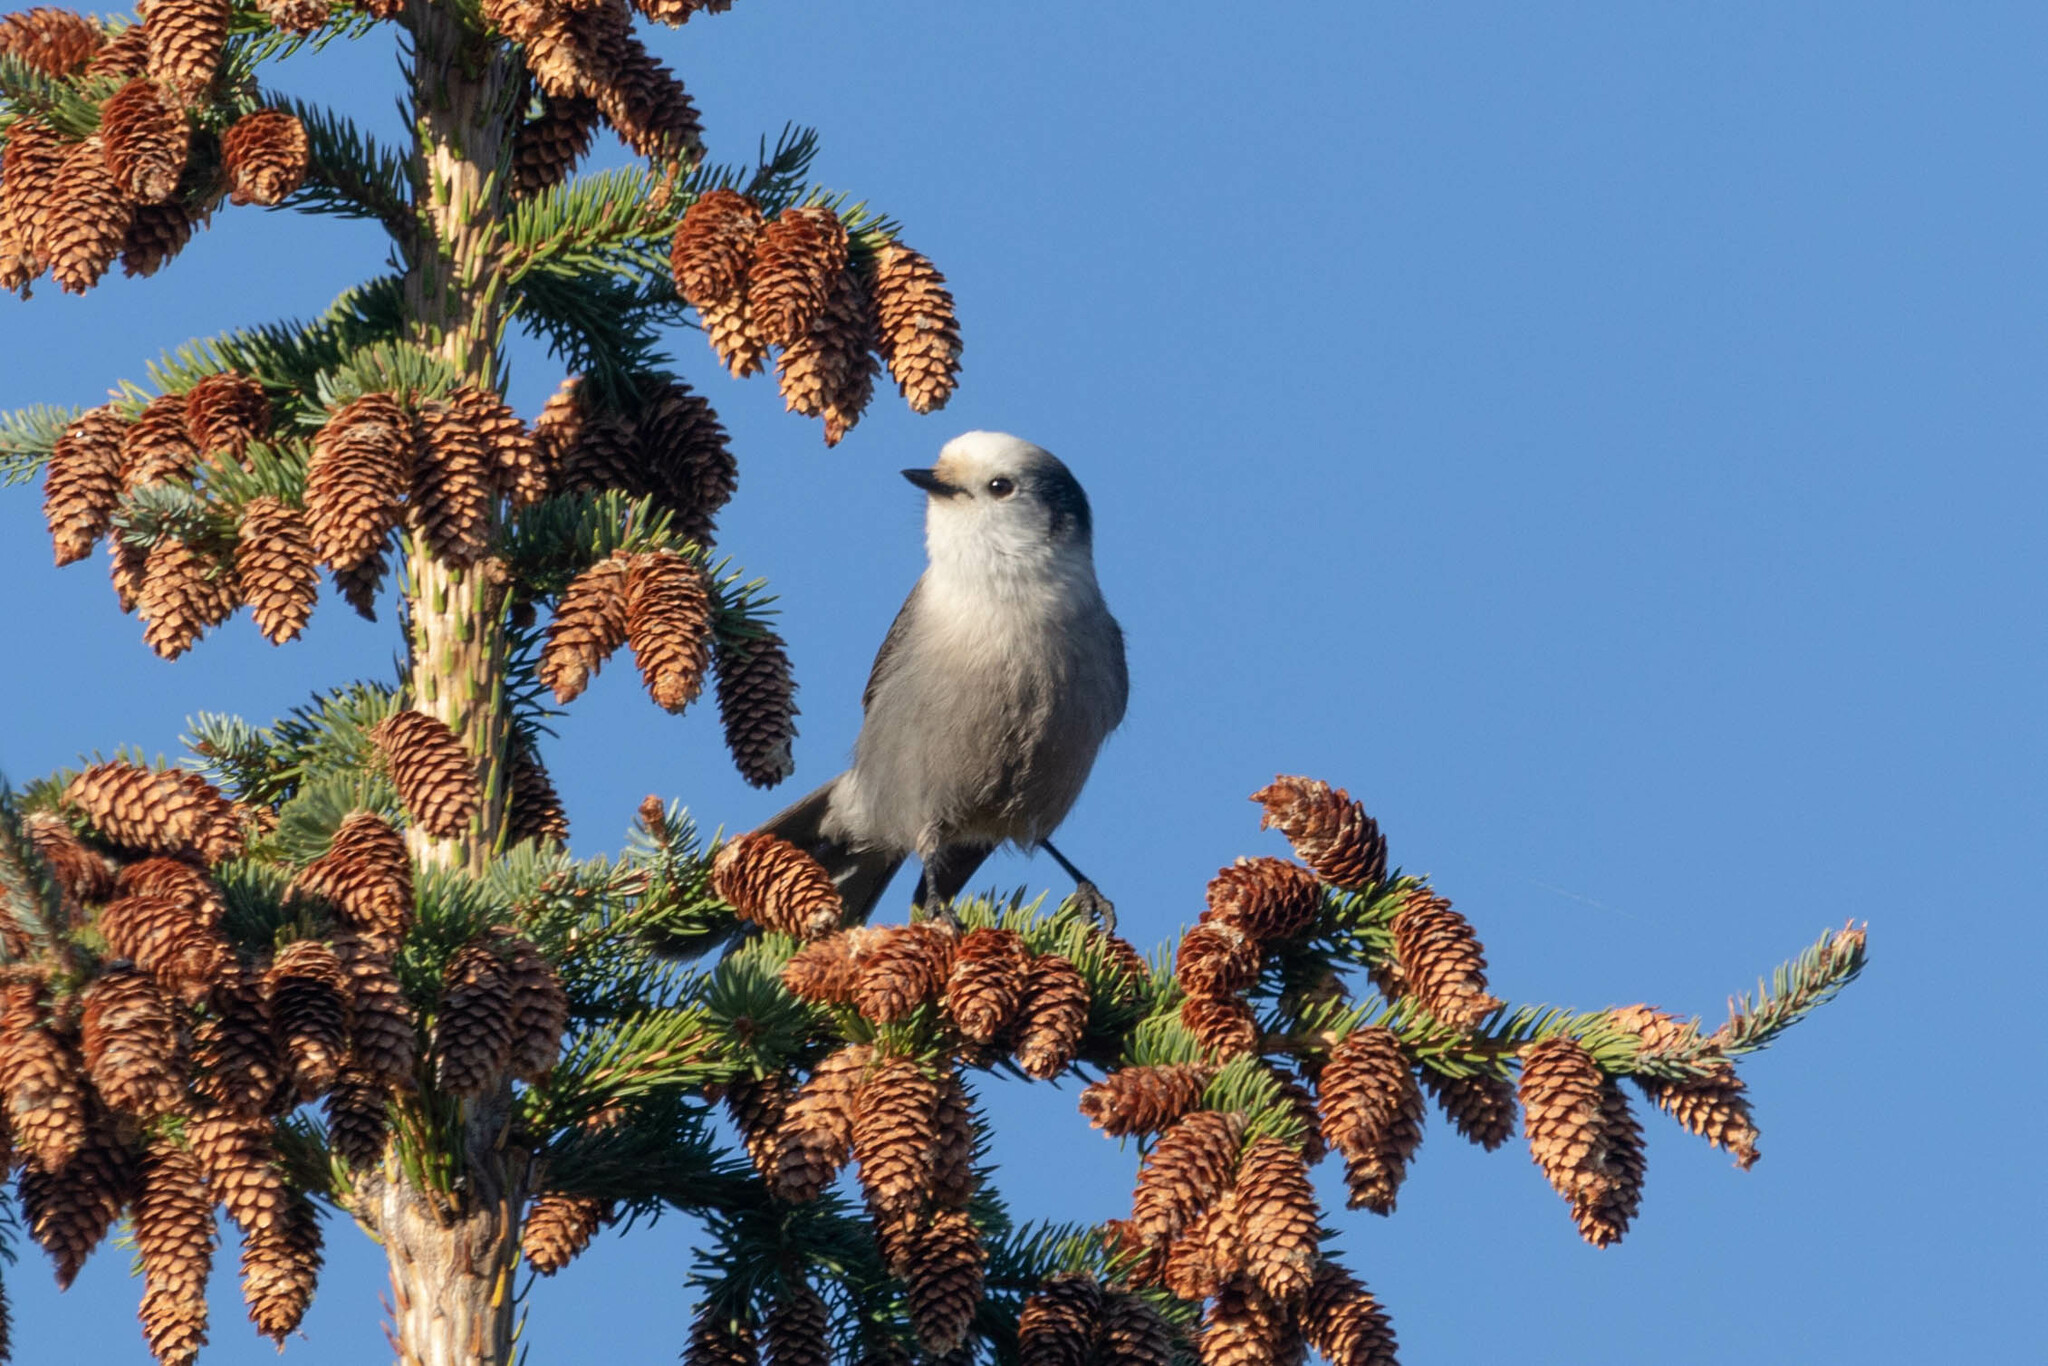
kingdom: Animalia
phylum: Chordata
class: Aves
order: Passeriformes
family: Corvidae
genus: Perisoreus
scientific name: Perisoreus canadensis
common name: Gray jay
